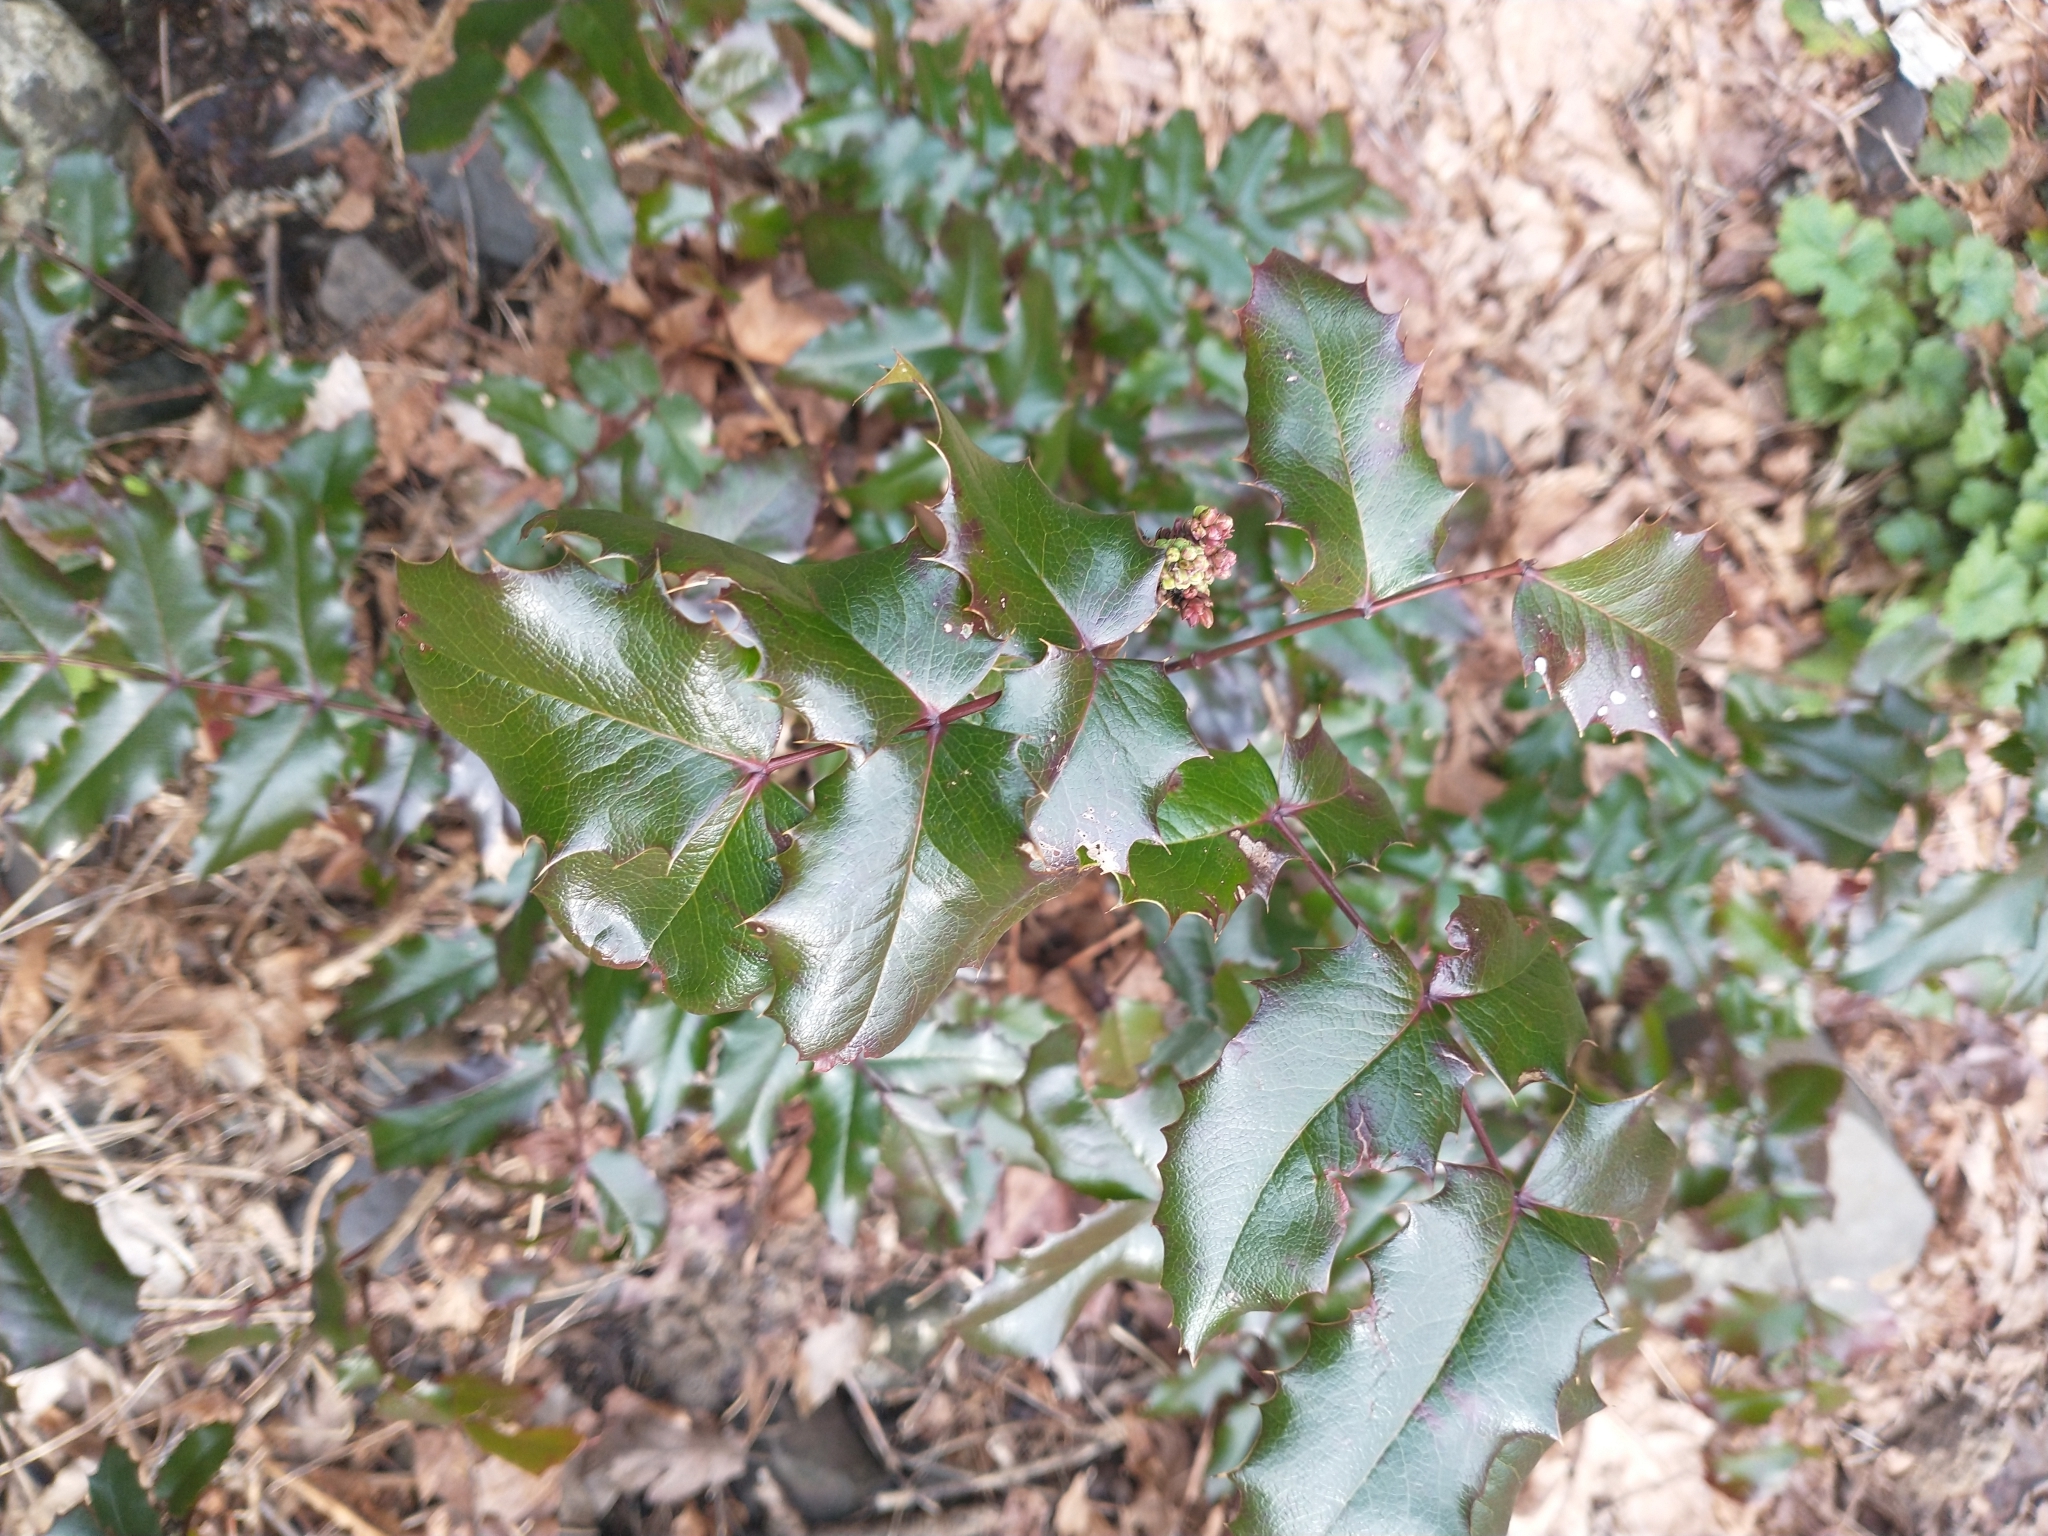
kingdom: Plantae
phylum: Tracheophyta
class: Magnoliopsida
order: Ranunculales
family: Berberidaceae
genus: Mahonia
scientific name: Mahonia aquifolium
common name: Oregon-grape
